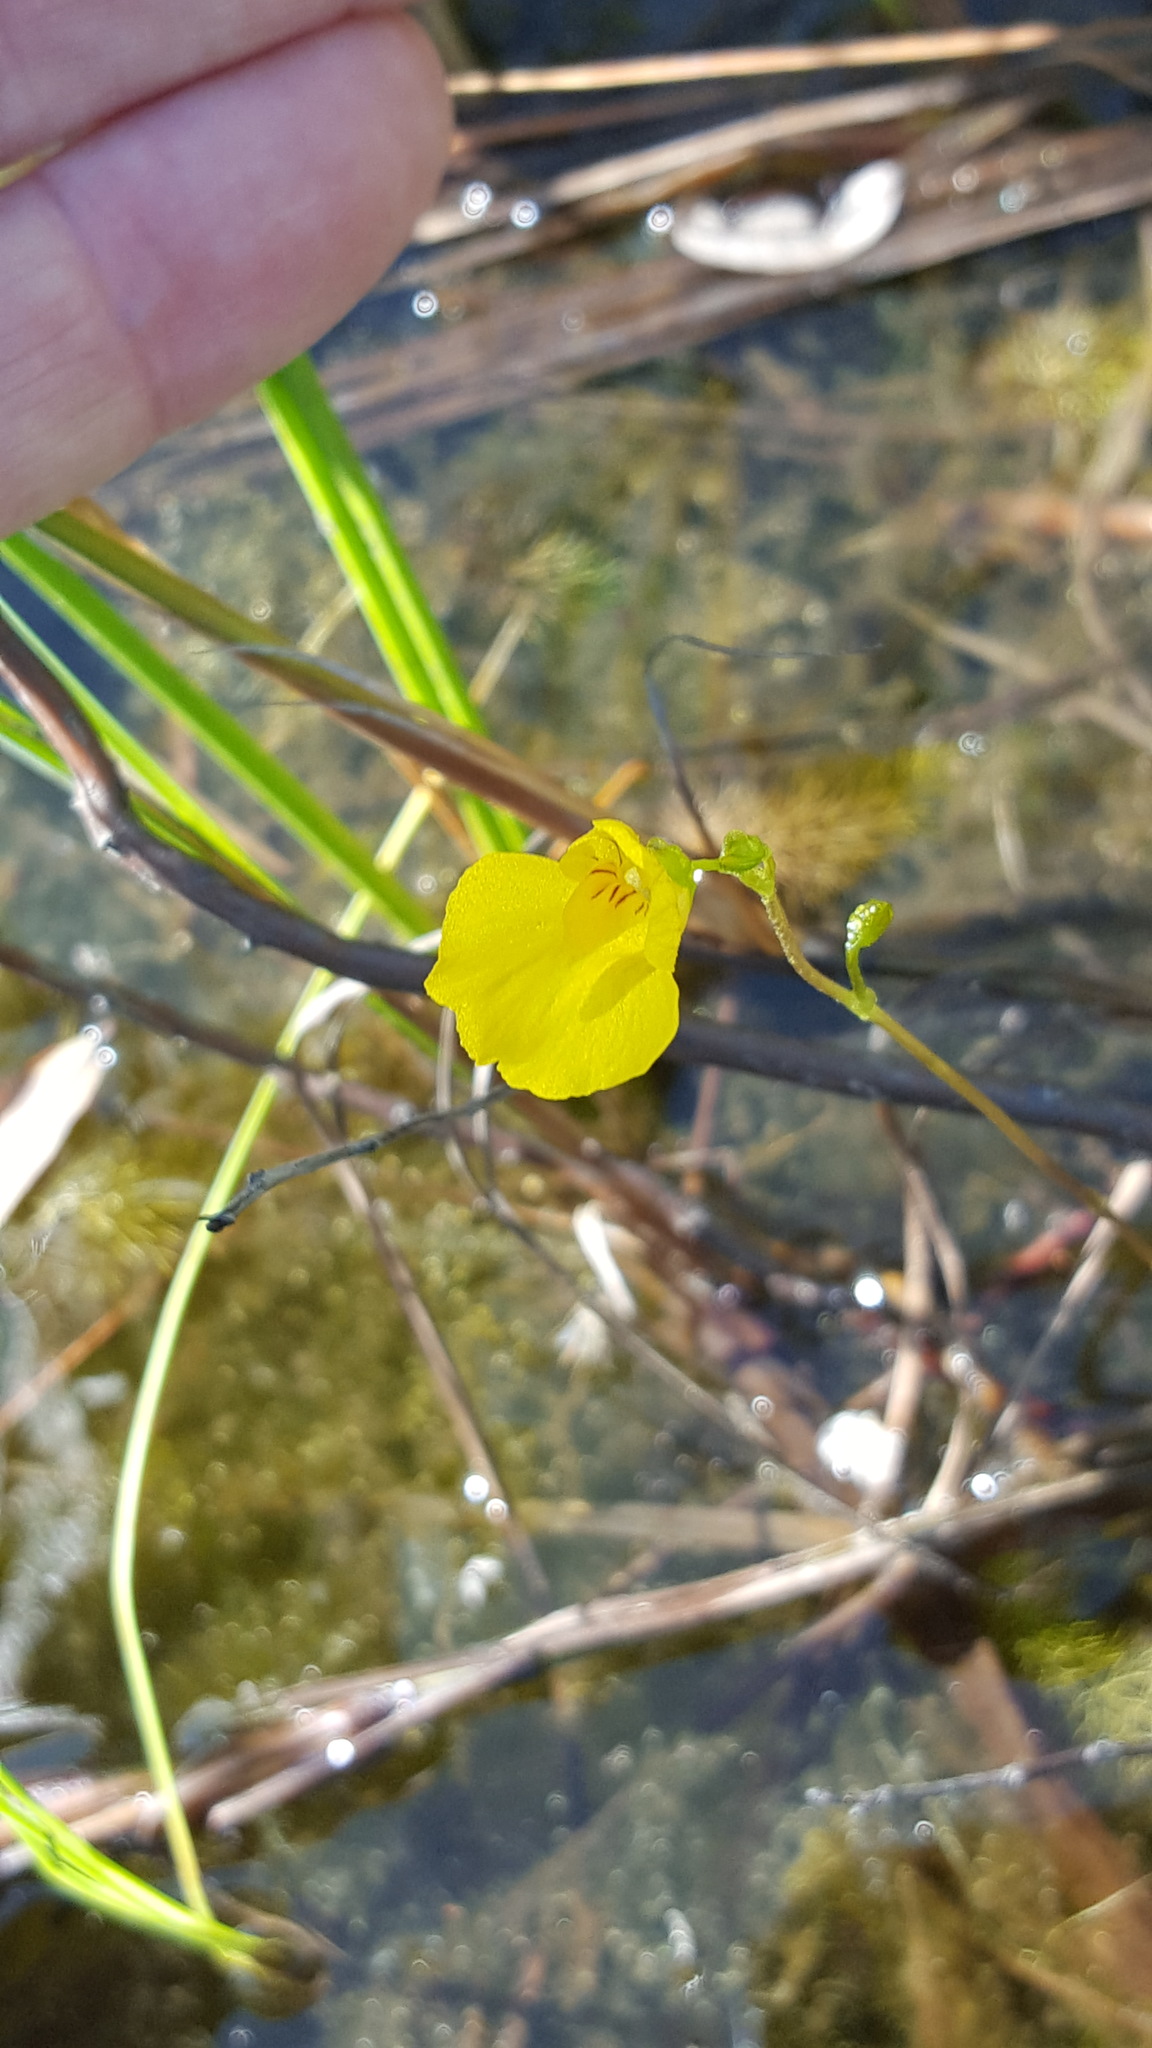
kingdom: Plantae
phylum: Tracheophyta
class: Magnoliopsida
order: Lamiales
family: Lentibulariaceae
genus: Utricularia
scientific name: Utricularia intermedia
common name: Intermediate bladderwort
